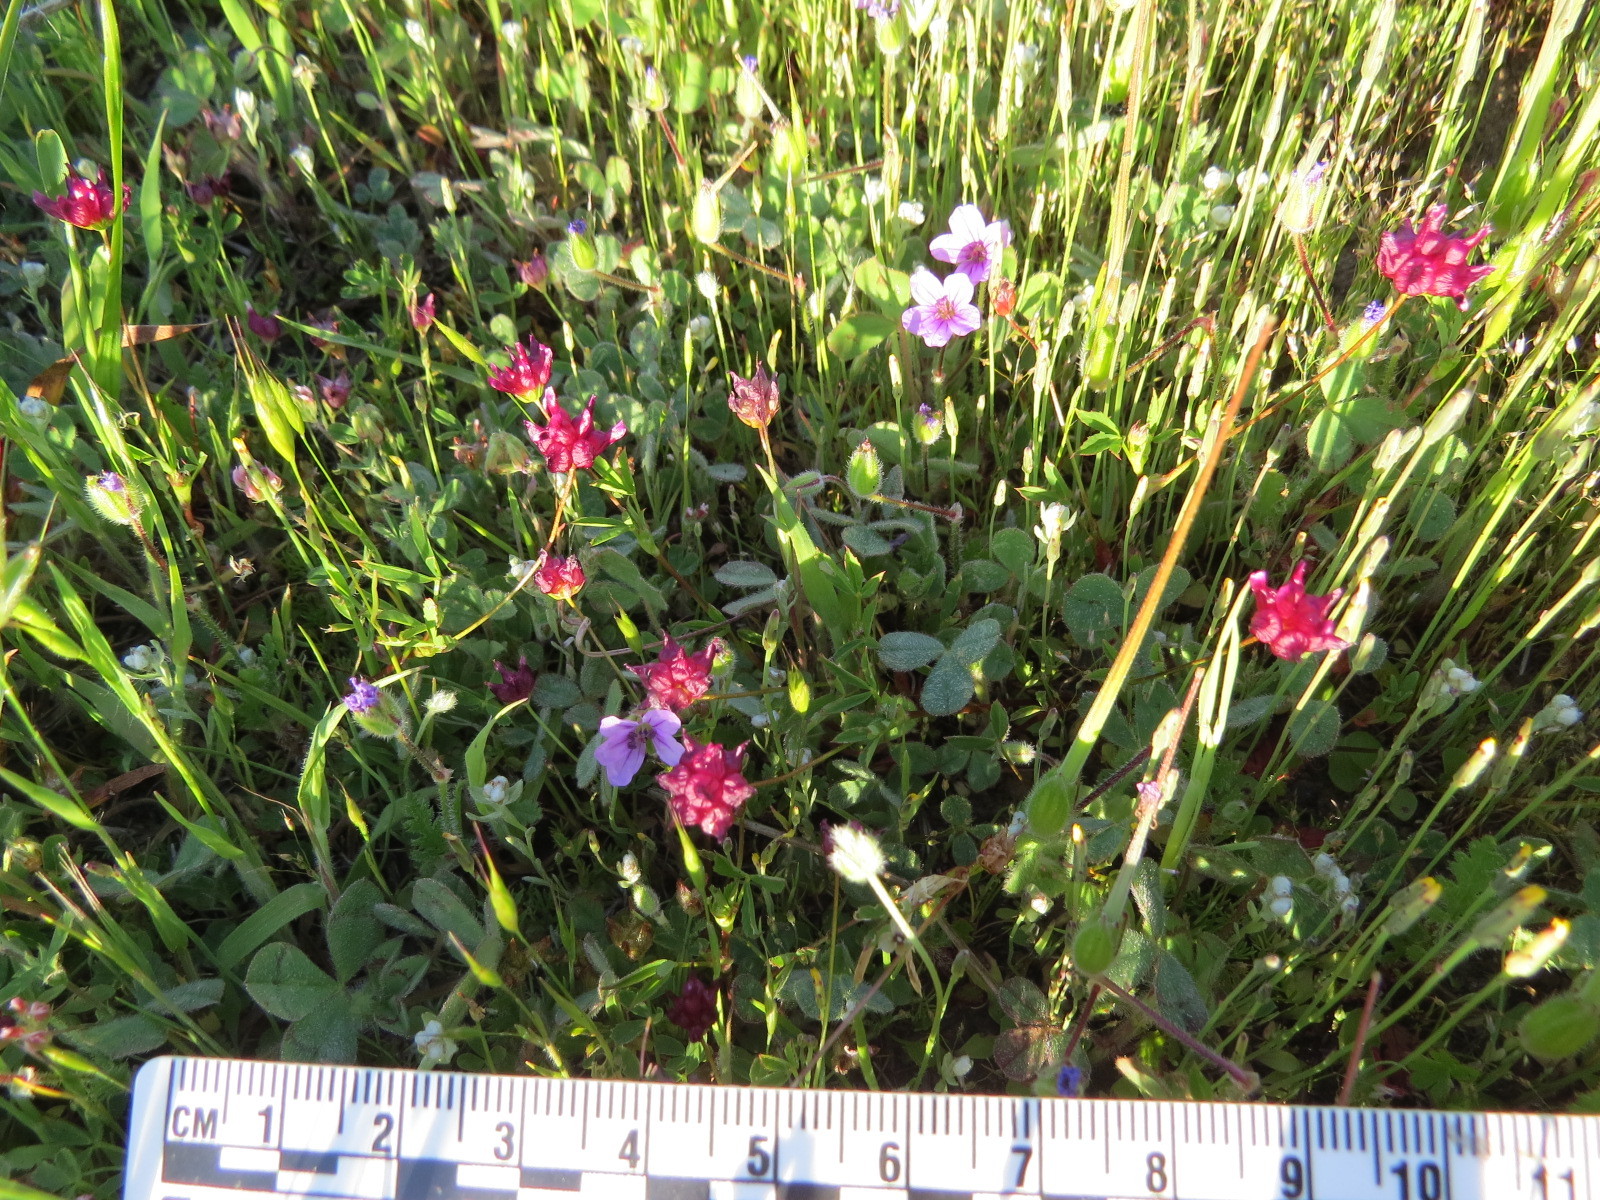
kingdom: Plantae
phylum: Tracheophyta
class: Magnoliopsida
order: Fabales
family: Fabaceae
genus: Trifolium
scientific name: Trifolium depauperatum
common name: Poverty clover
